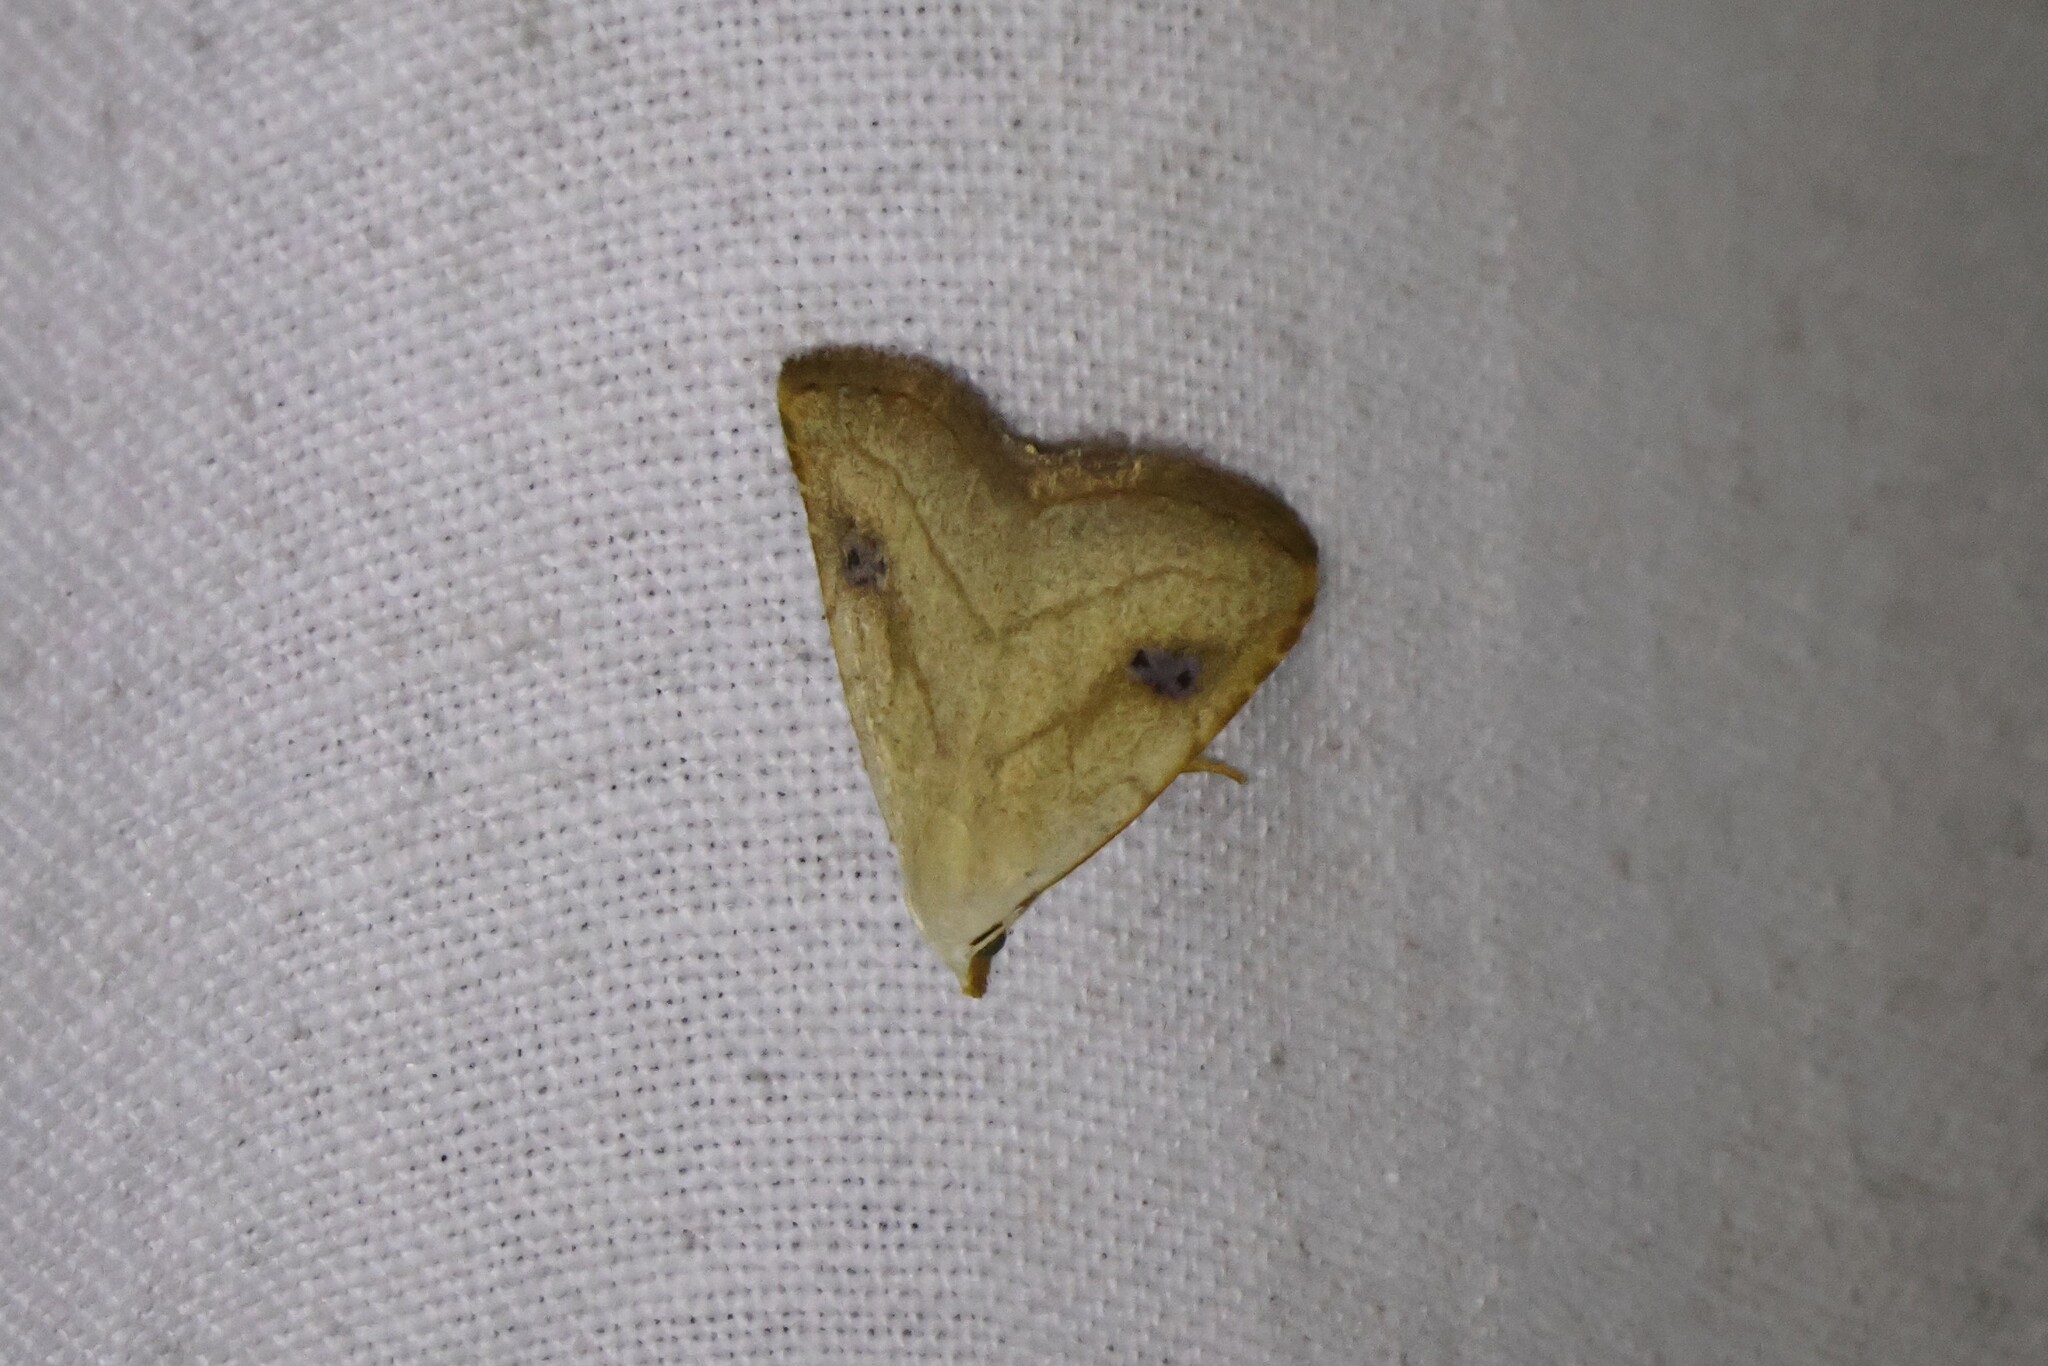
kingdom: Animalia
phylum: Arthropoda
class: Insecta
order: Lepidoptera
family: Erebidae
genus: Rivula
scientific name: Rivula propinqualis
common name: Spotted grass moth
